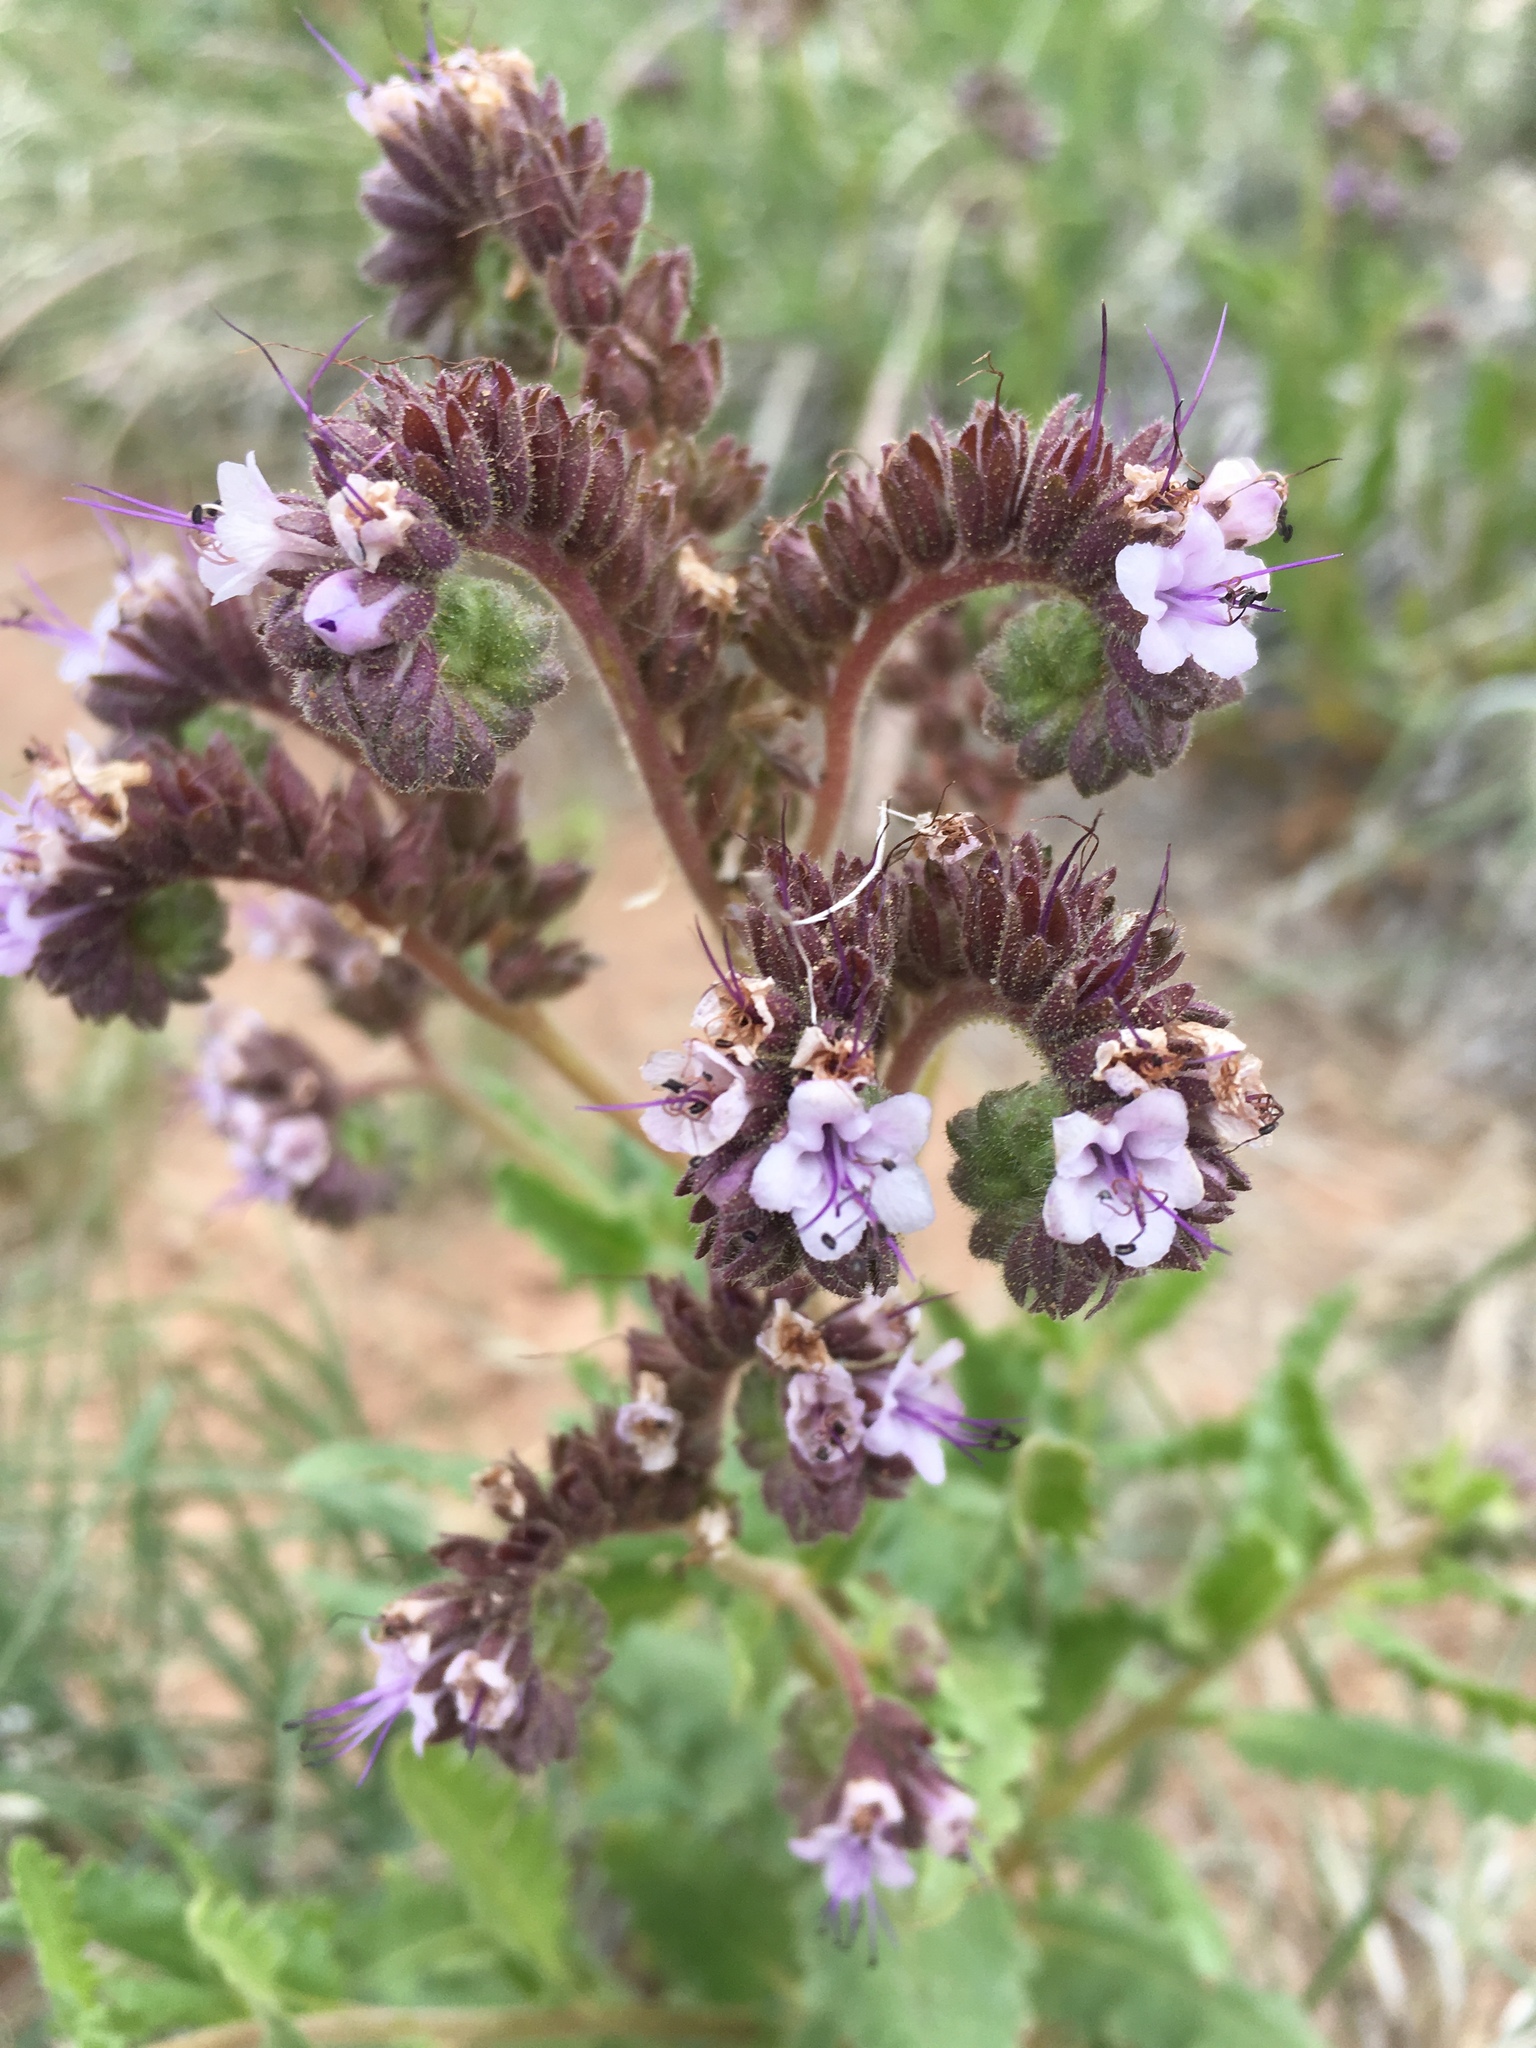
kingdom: Plantae
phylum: Tracheophyta
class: Magnoliopsida
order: Boraginales
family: Hydrophyllaceae
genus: Phacelia
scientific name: Phacelia integrifolia
